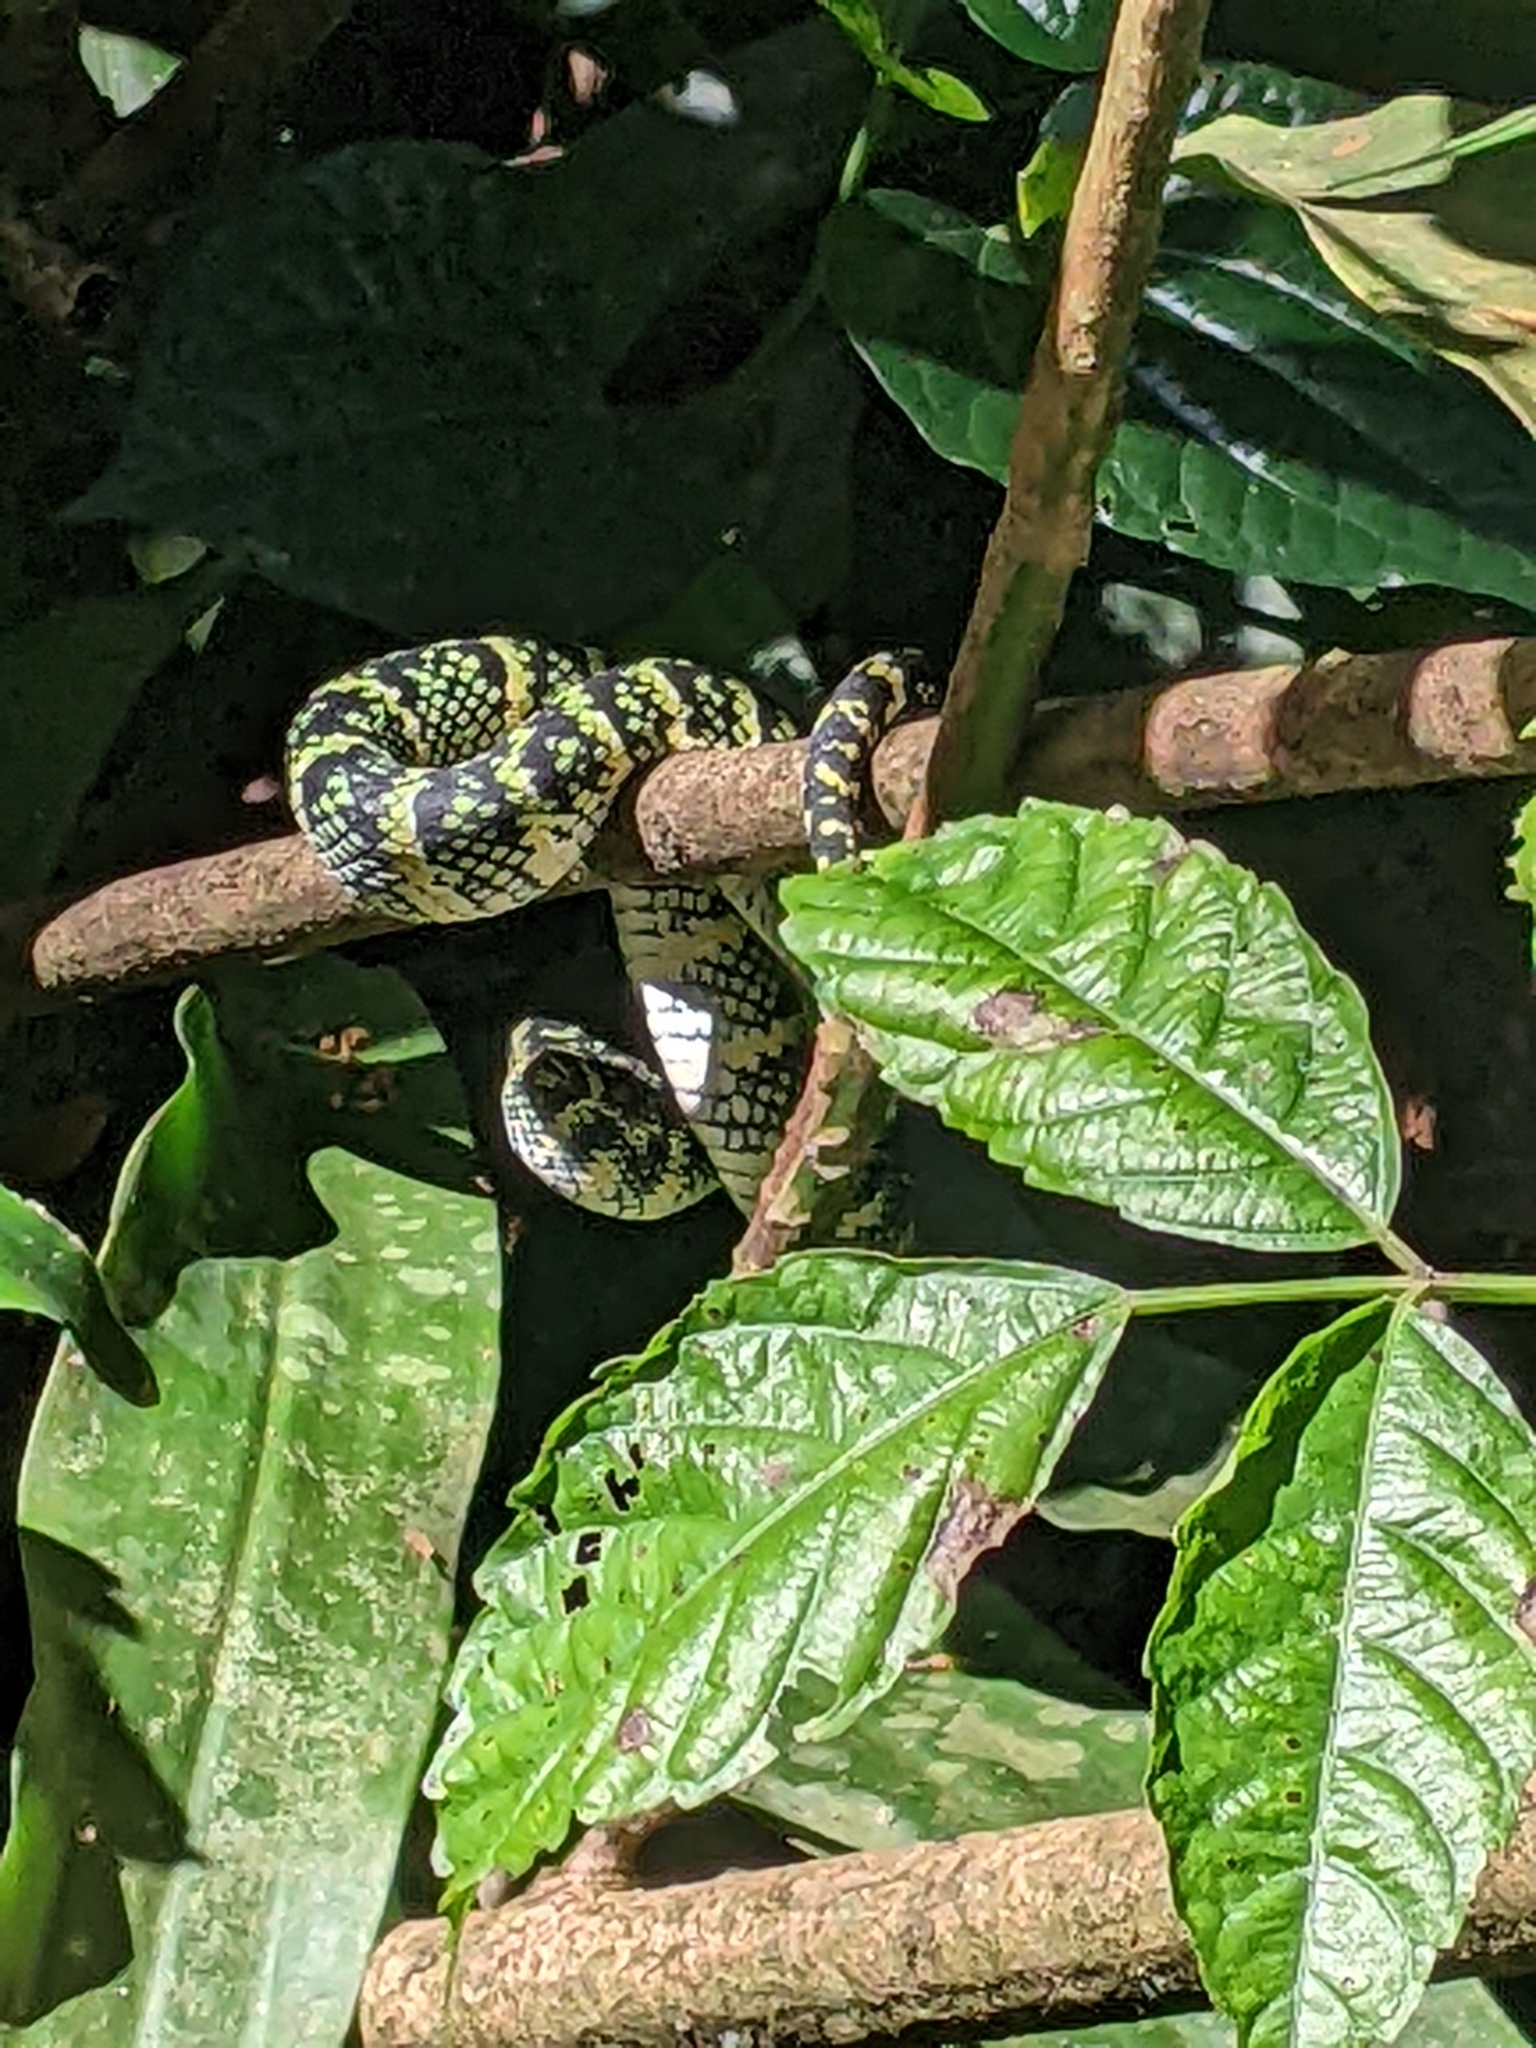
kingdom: Animalia
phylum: Chordata
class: Squamata
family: Viperidae
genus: Tropidolaemus
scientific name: Tropidolaemus wagleri
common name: Wagler's palm viper
